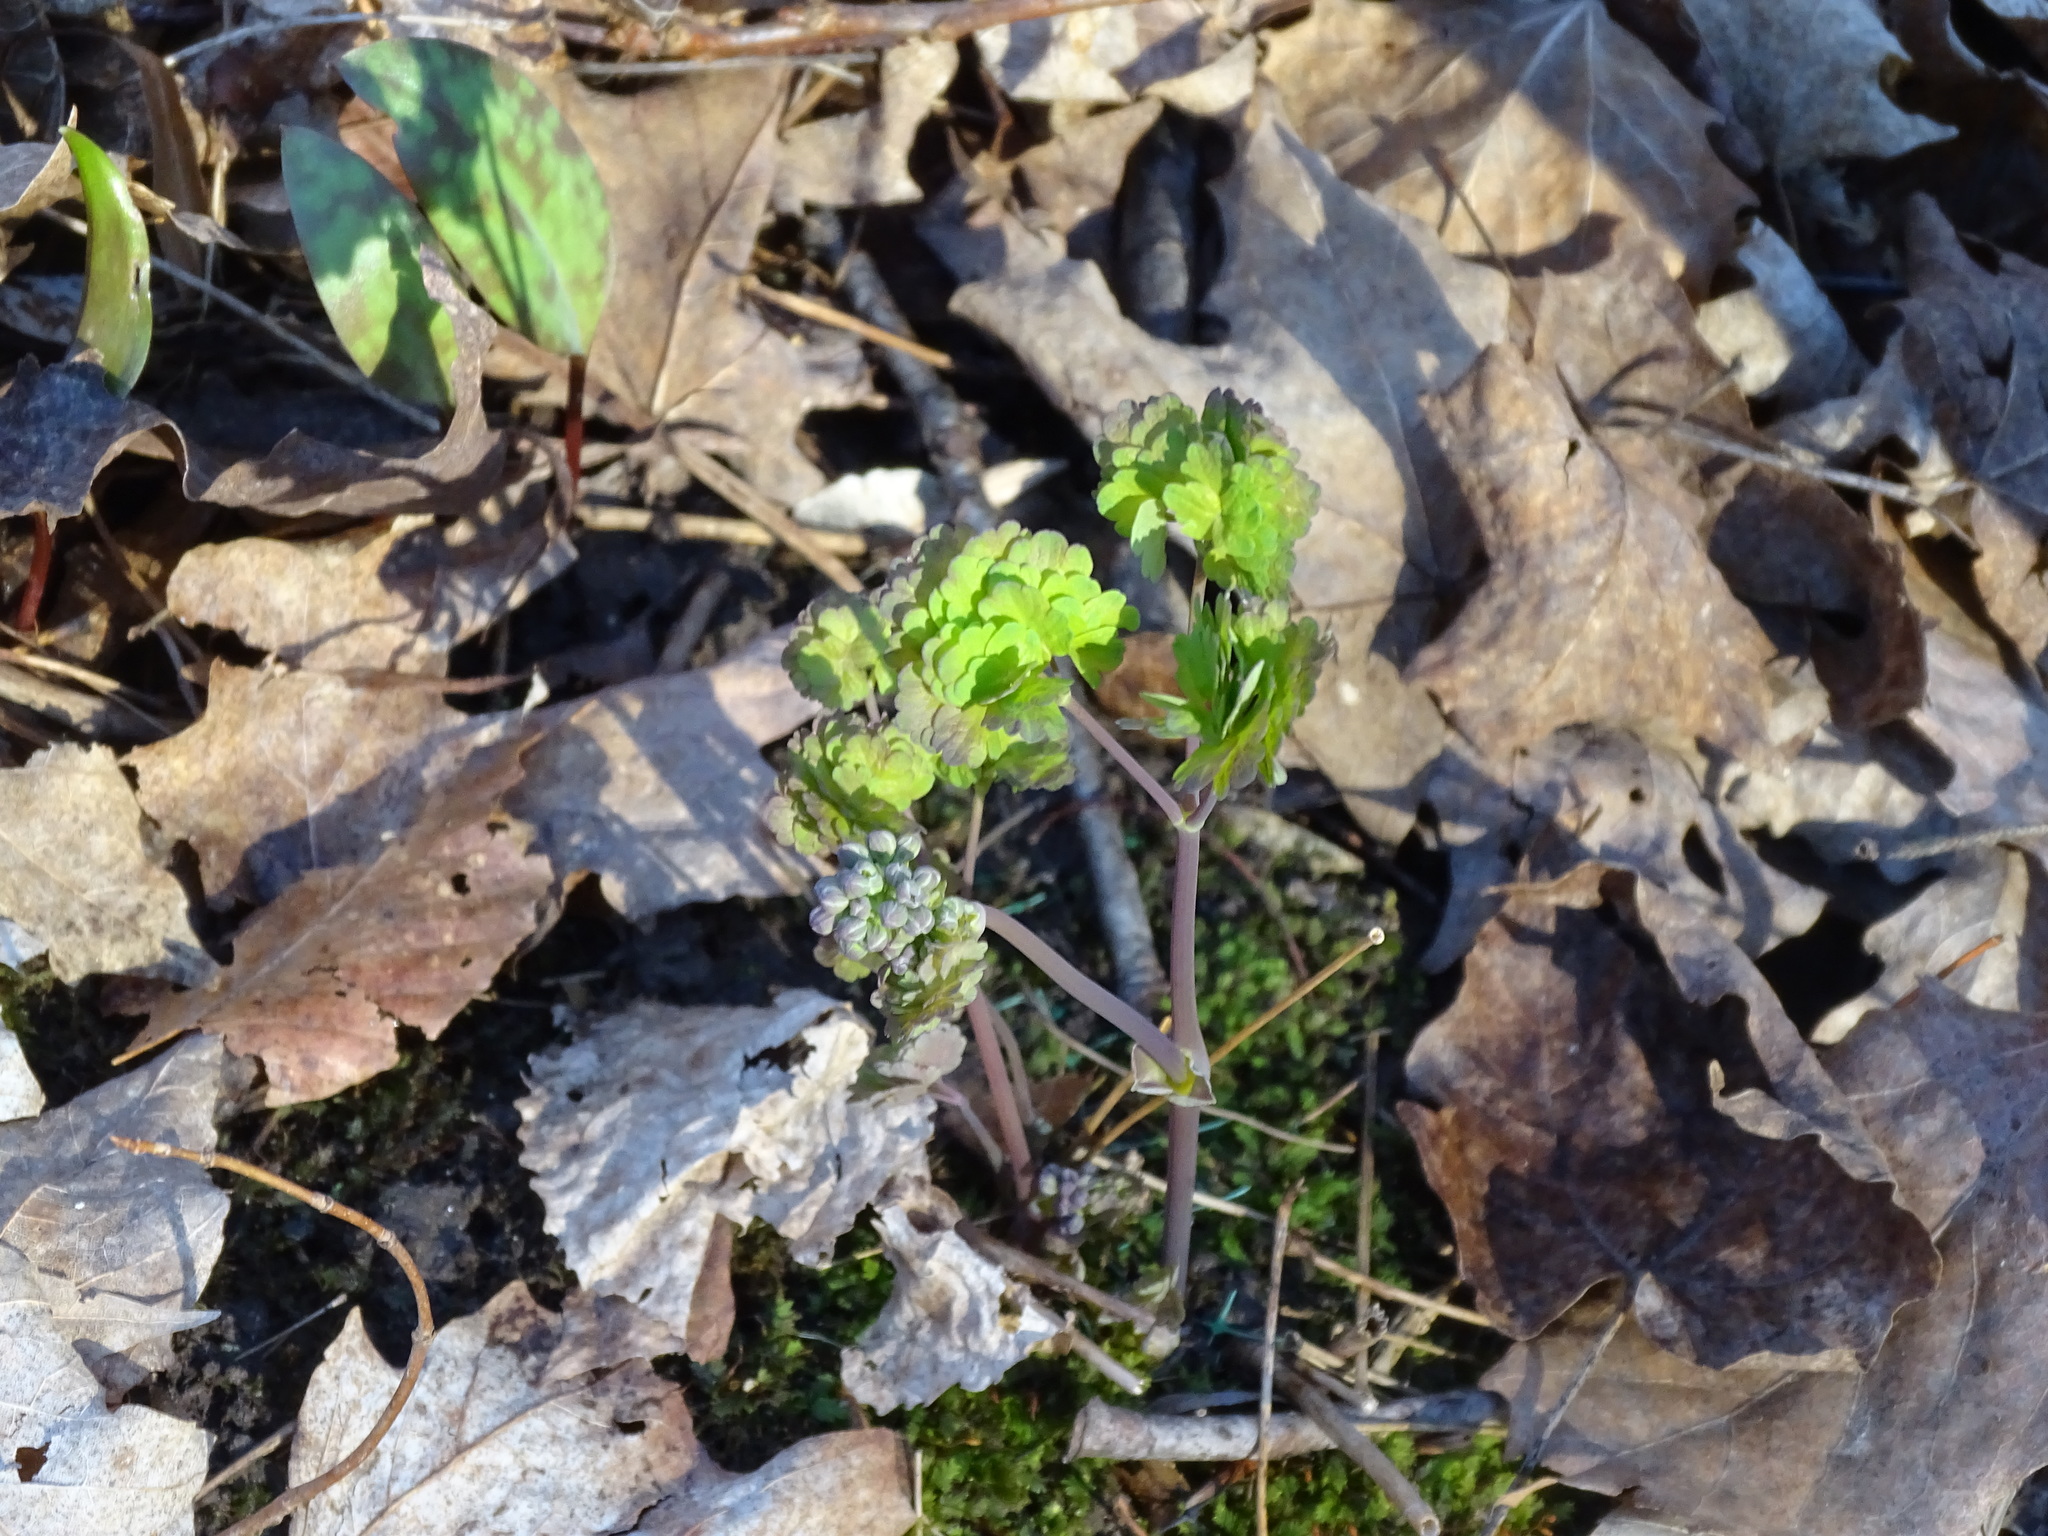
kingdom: Plantae
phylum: Tracheophyta
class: Magnoliopsida
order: Ranunculales
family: Ranunculaceae
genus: Thalictrum
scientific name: Thalictrum dioicum
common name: Early meadow-rue
